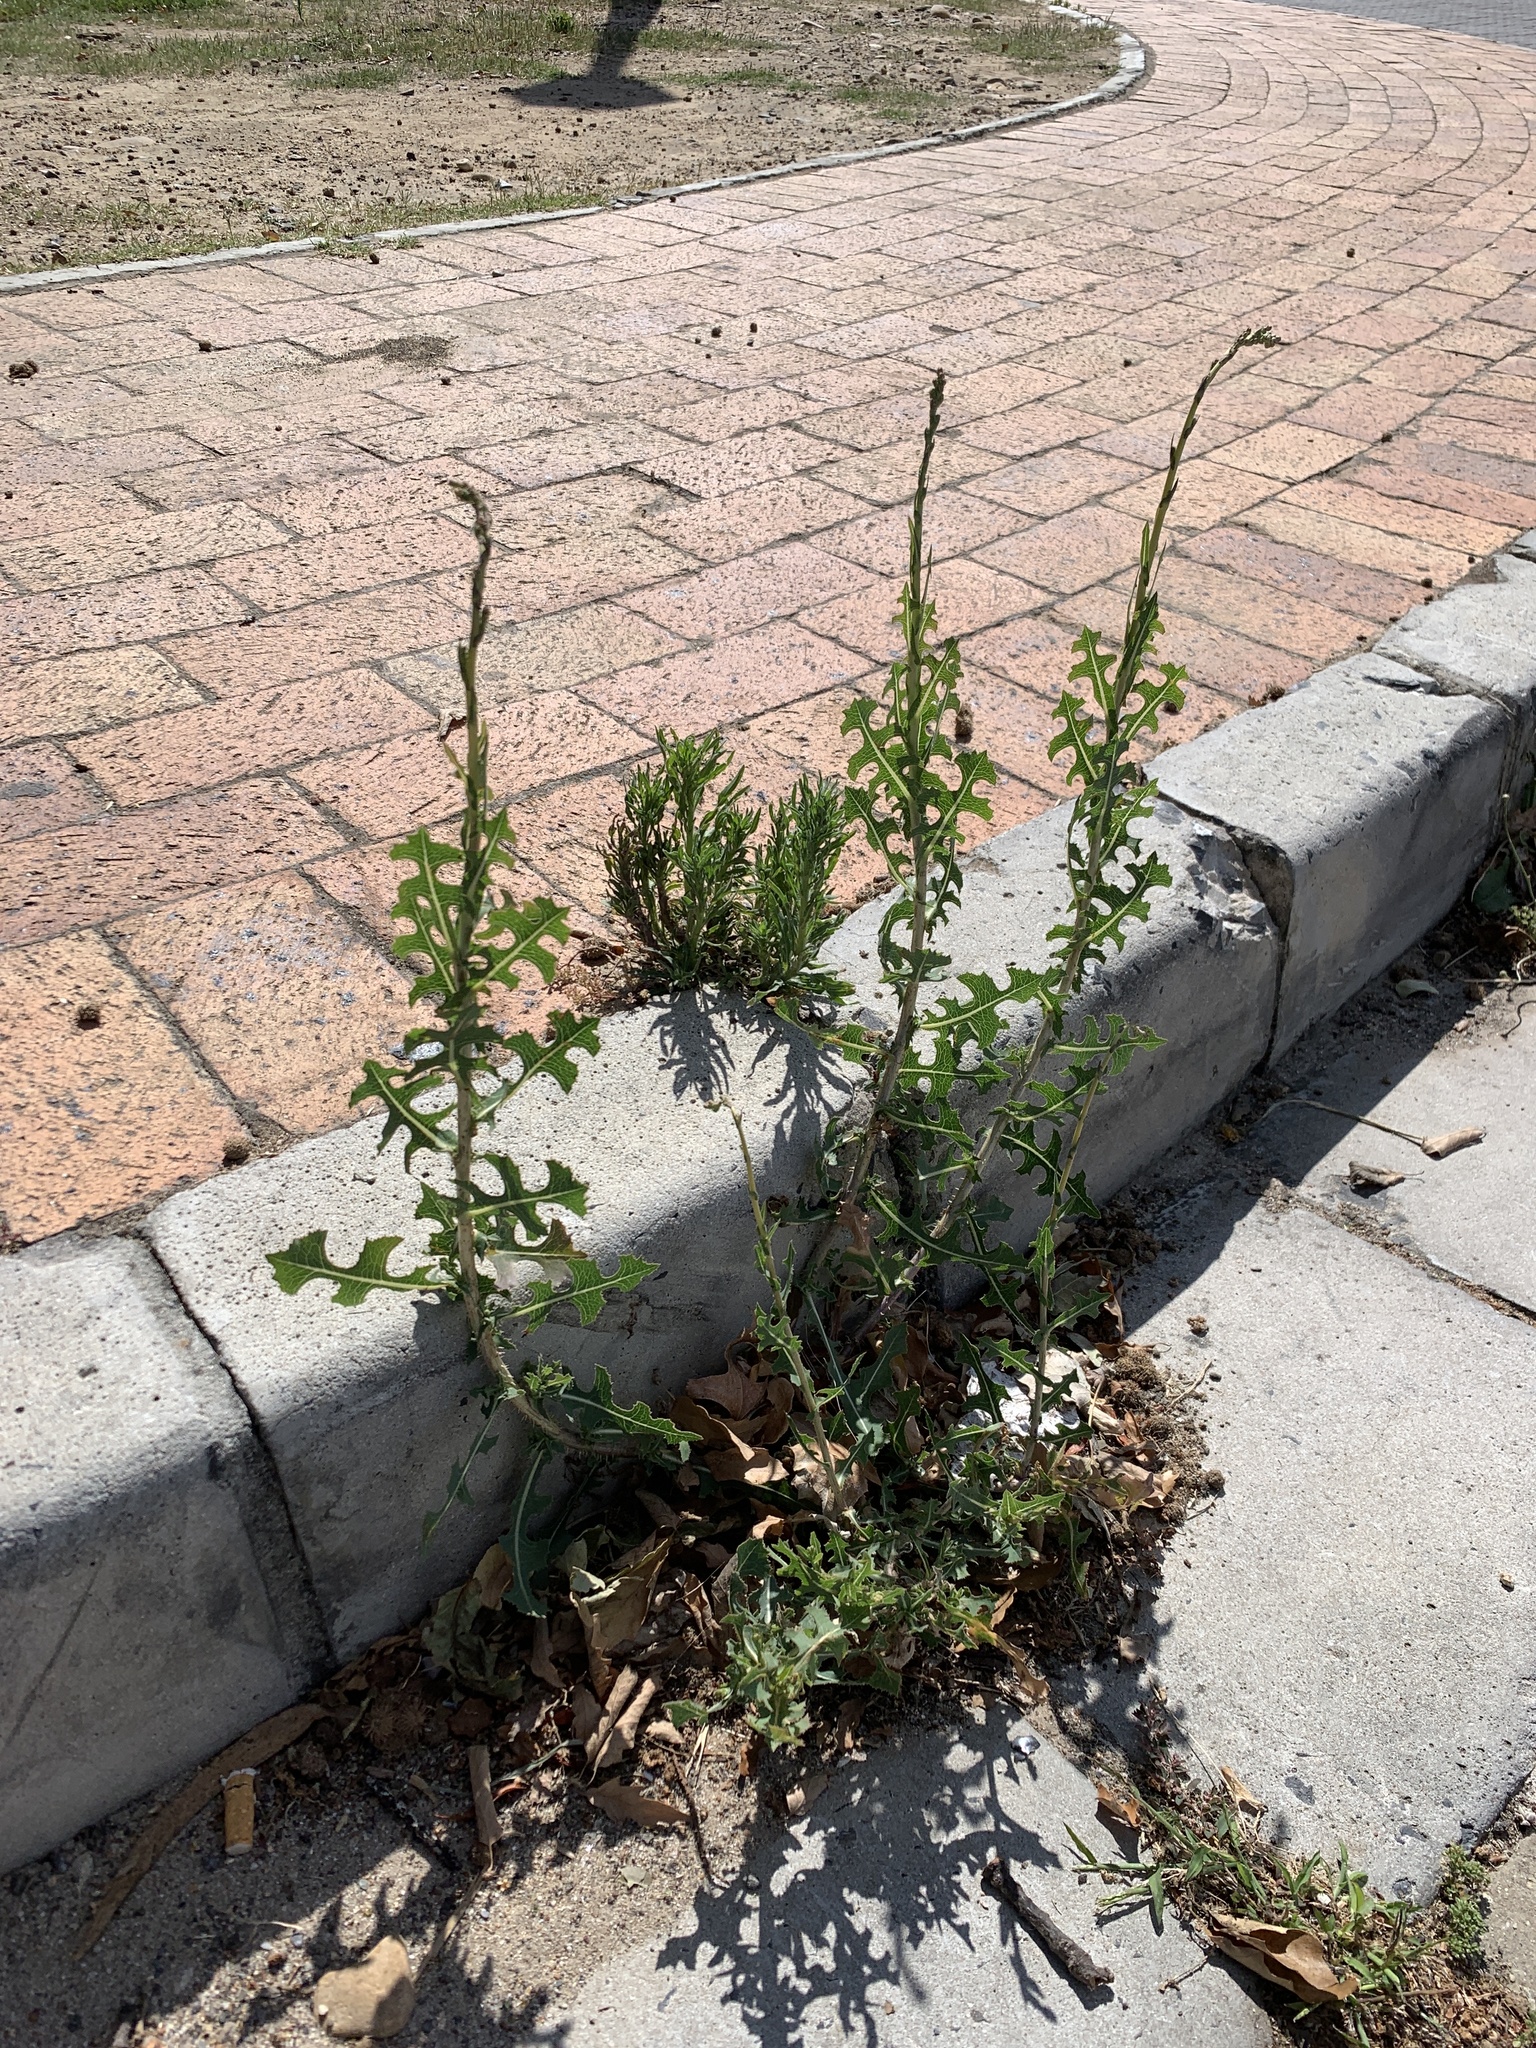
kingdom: Plantae
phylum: Tracheophyta
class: Magnoliopsida
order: Asterales
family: Asteraceae
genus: Lactuca
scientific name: Lactuca serriola
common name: Prickly lettuce
